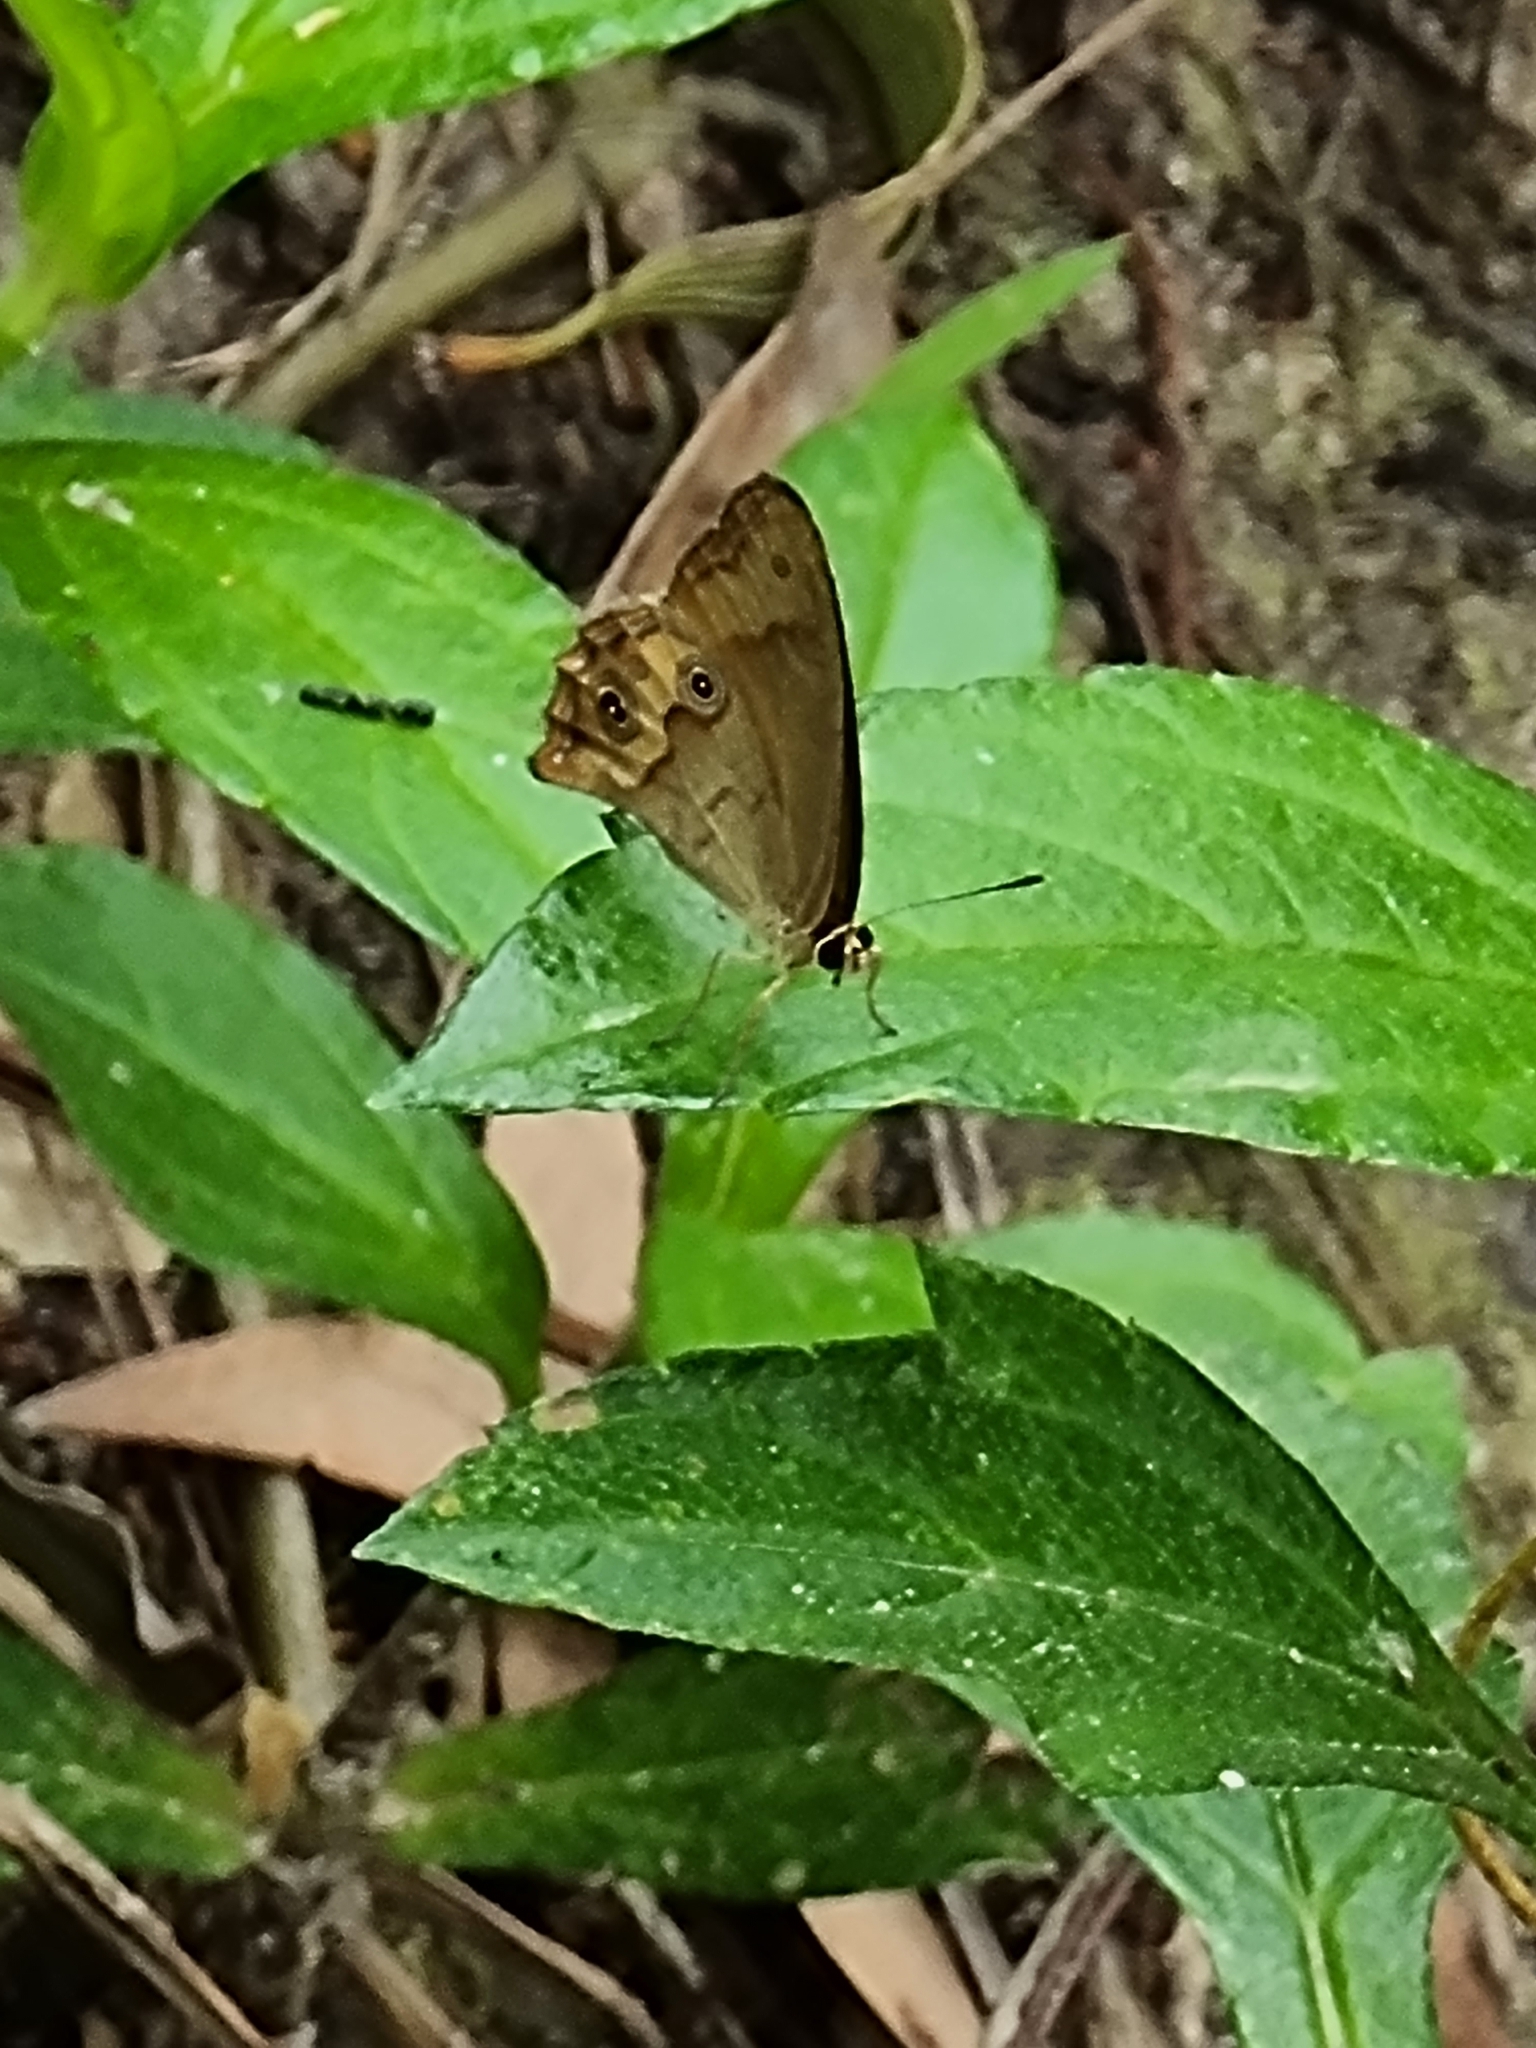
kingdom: Animalia
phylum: Arthropoda
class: Insecta
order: Lepidoptera
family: Nymphalidae
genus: Hypocysta
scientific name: Hypocysta metirius
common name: Brown ringlet
